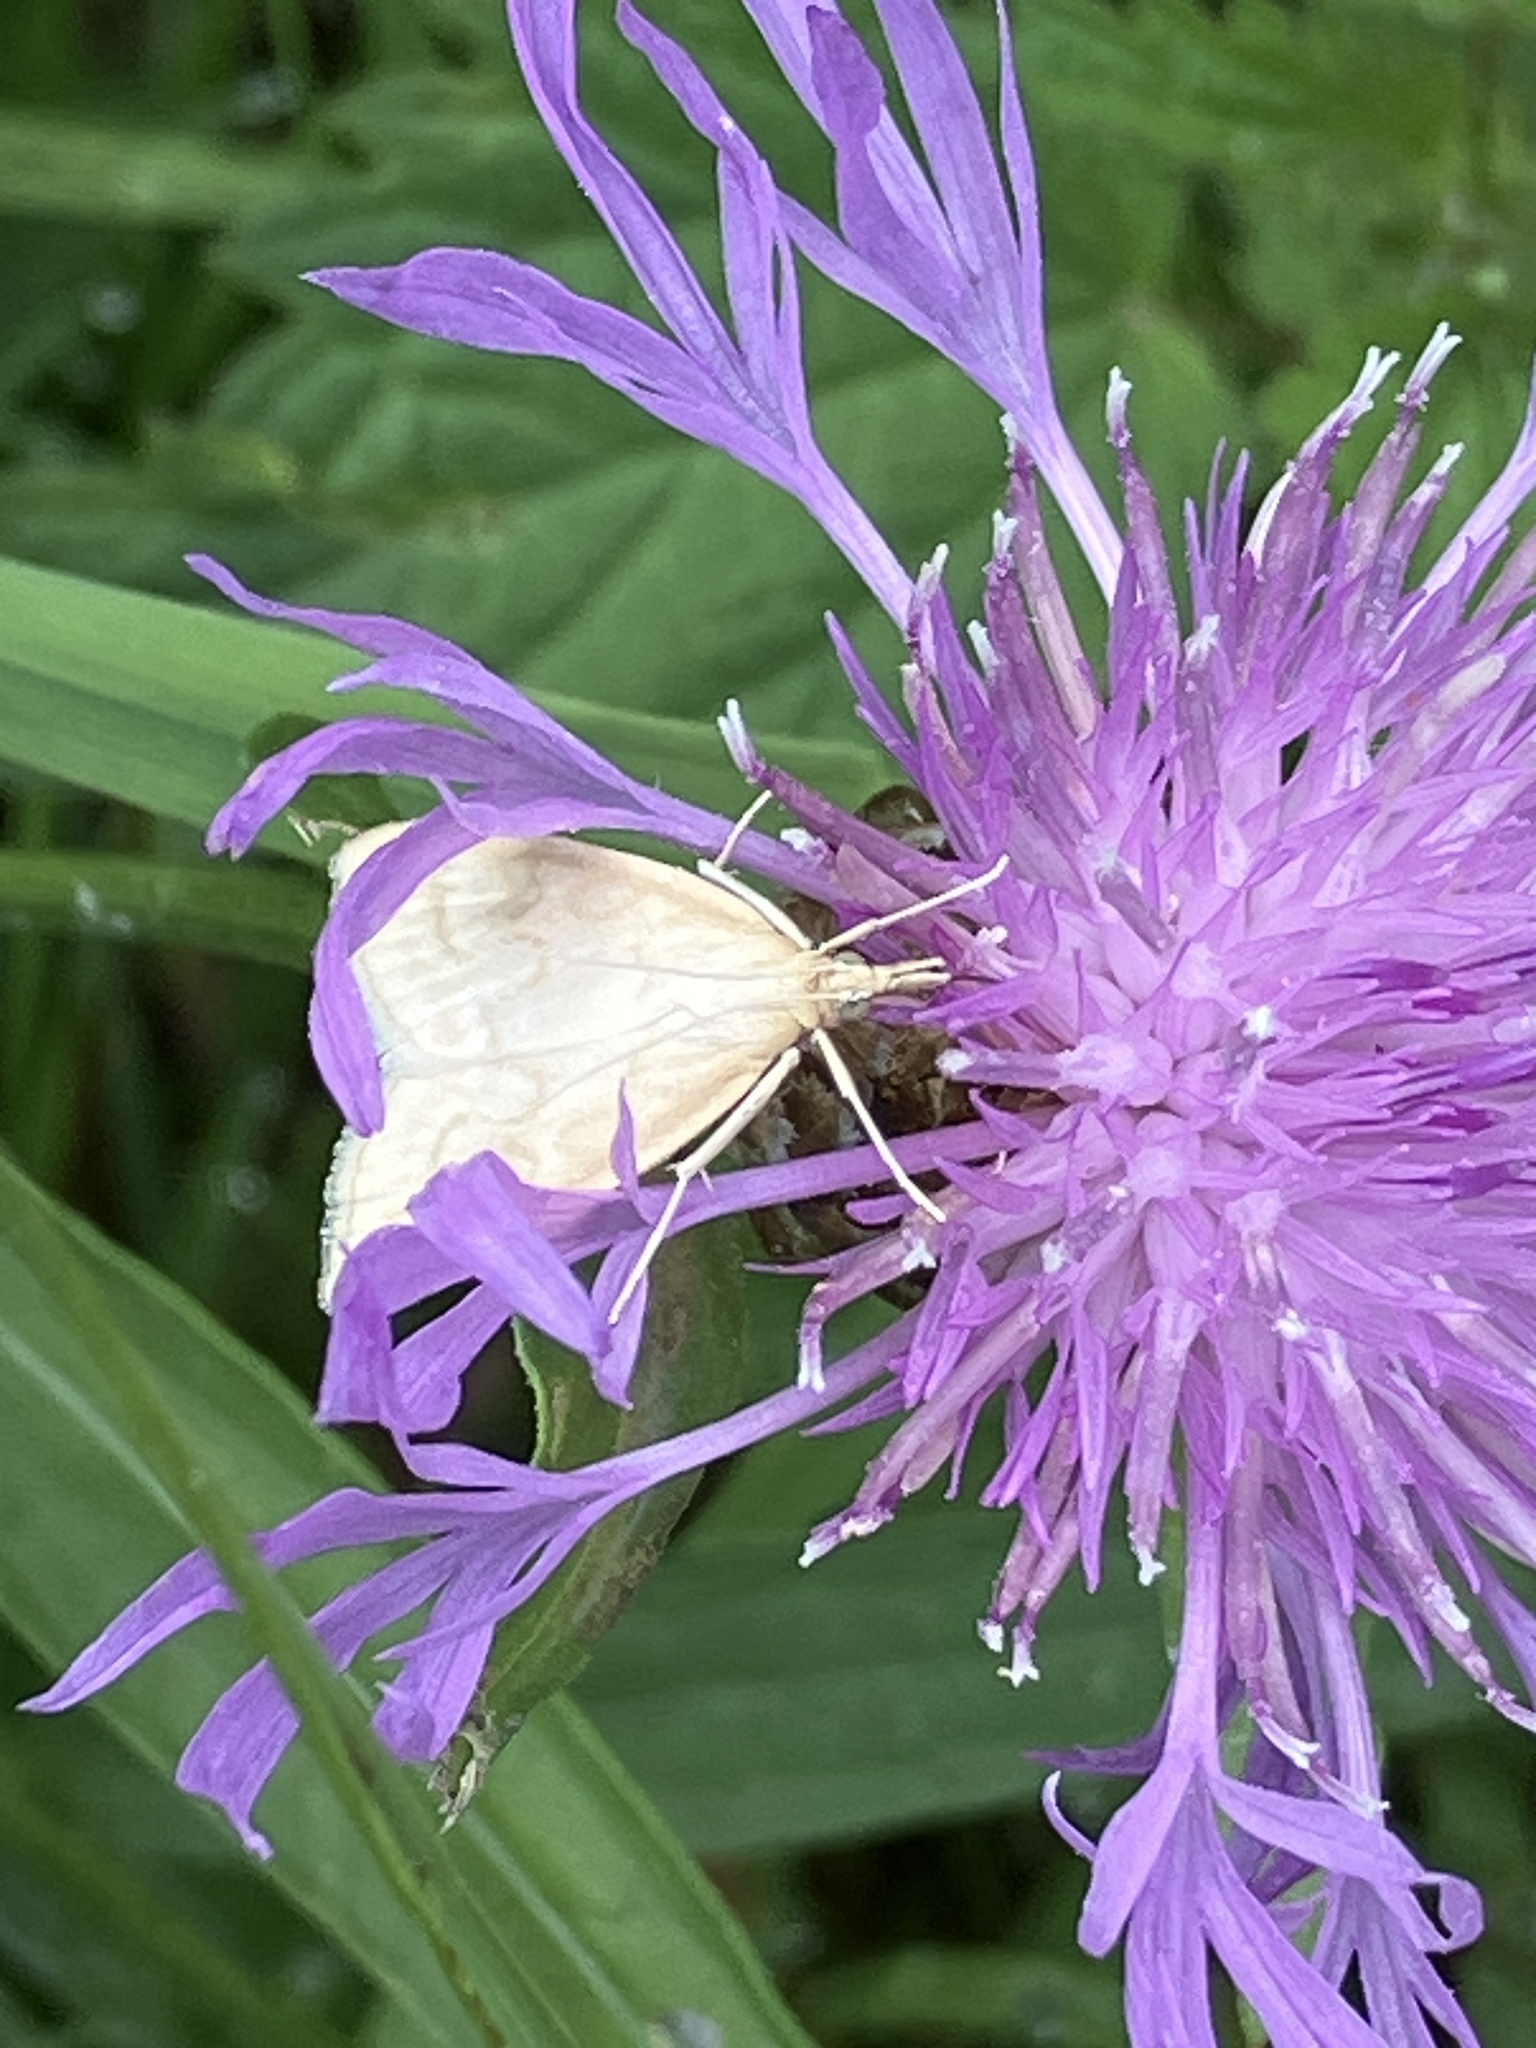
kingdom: Animalia
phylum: Arthropoda
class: Insecta
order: Lepidoptera
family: Crambidae
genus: Udea
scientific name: Udea lutealis
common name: Pale straw pearl
